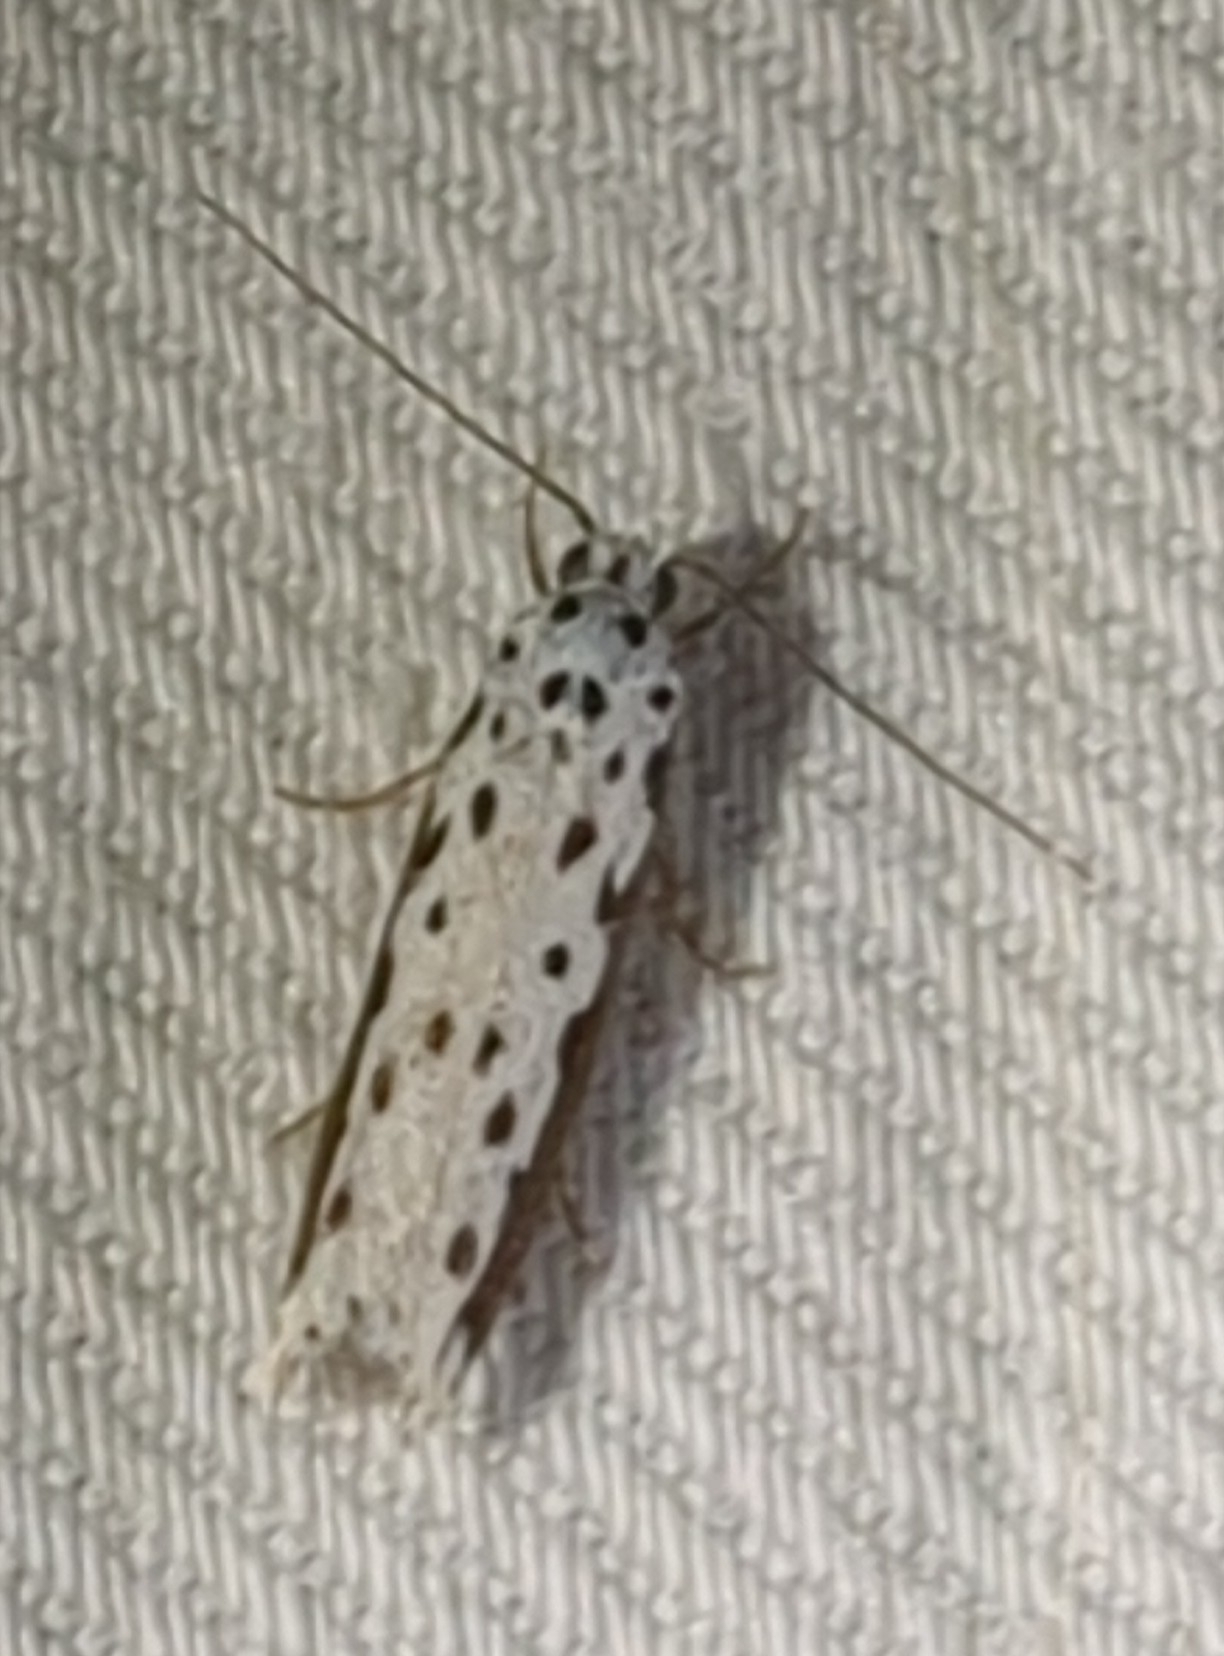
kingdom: Animalia
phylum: Arthropoda
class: Insecta
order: Lepidoptera
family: Ethmiidae
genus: Ethmia
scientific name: Ethmia hagenella
